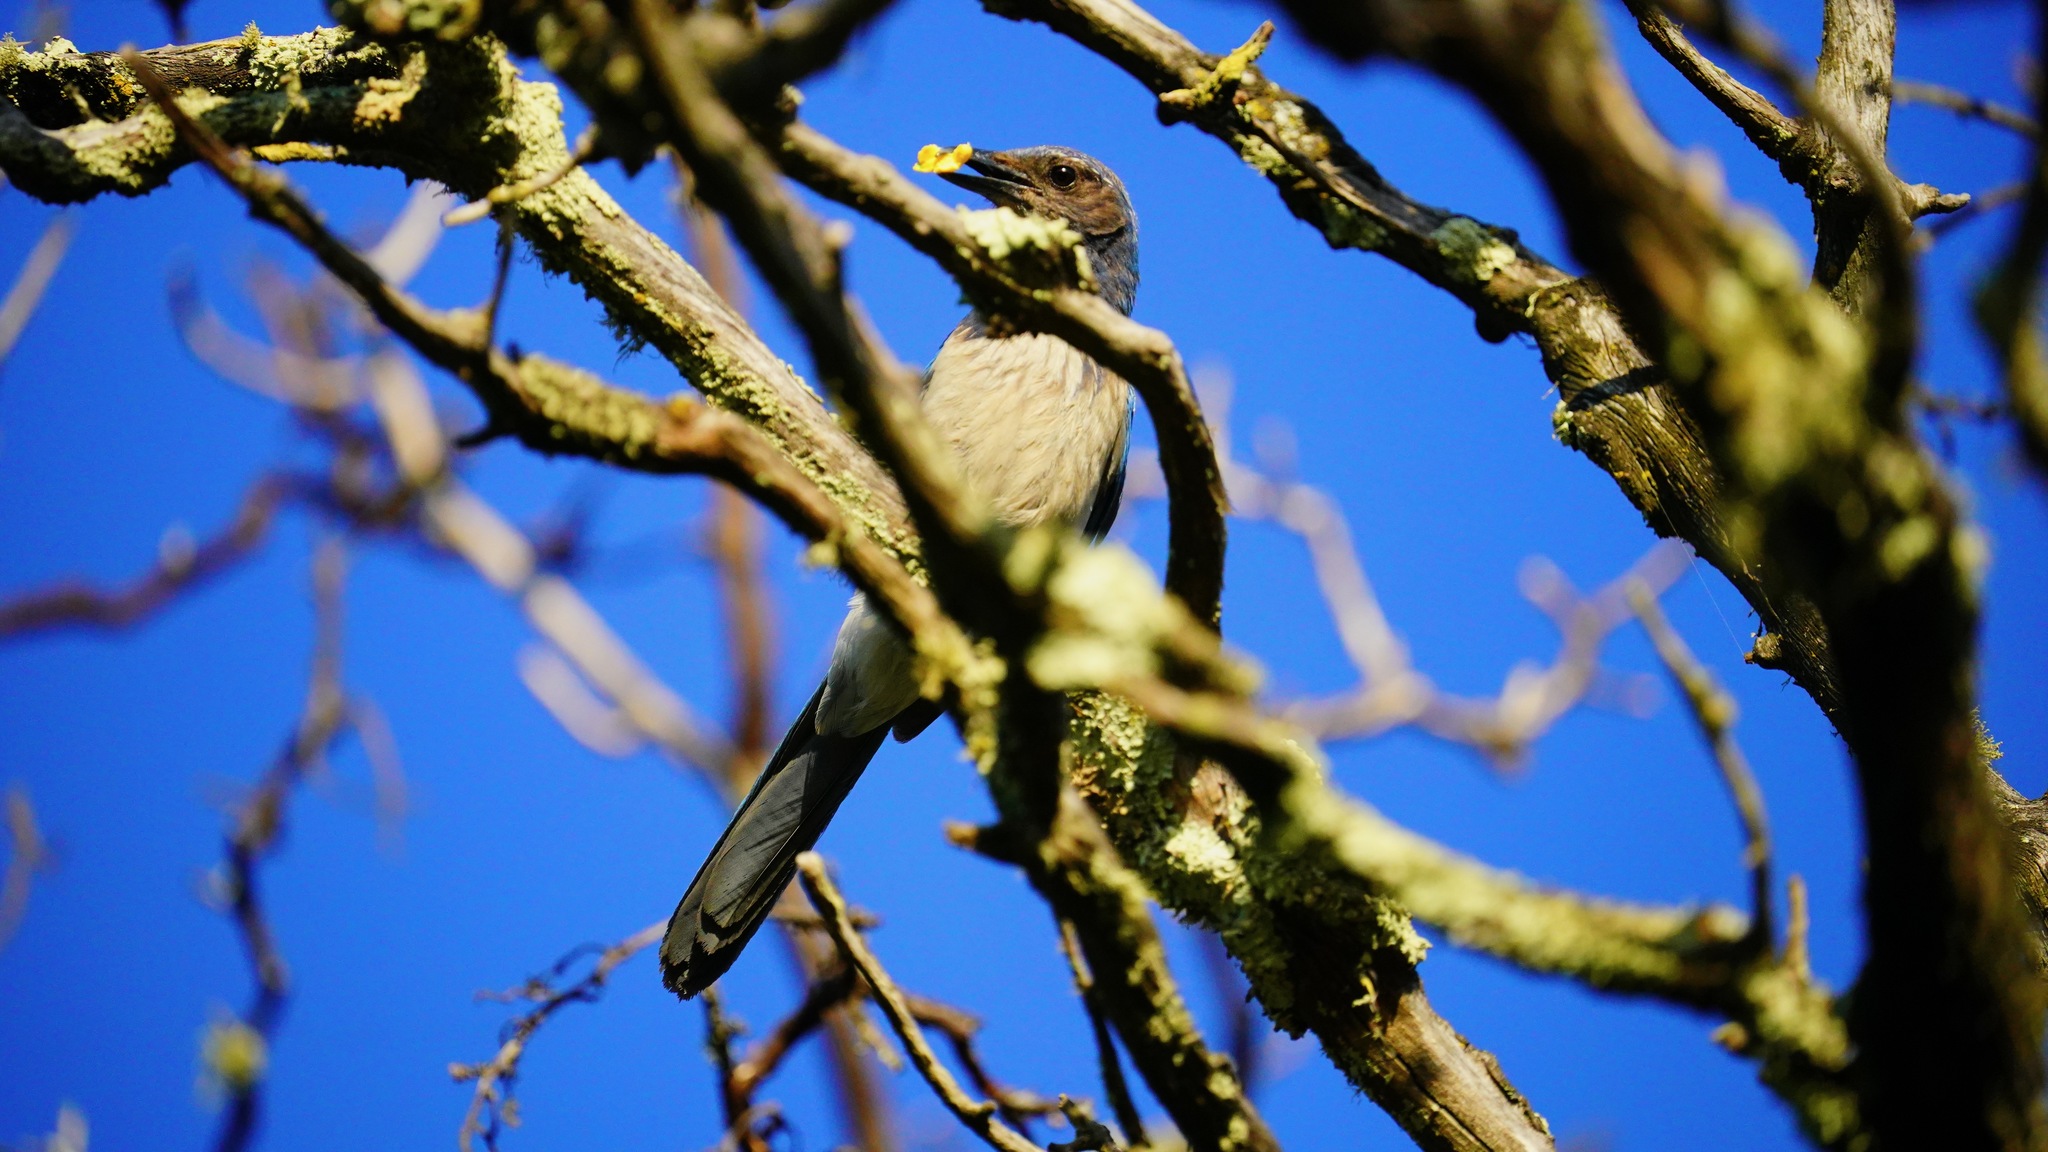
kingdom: Animalia
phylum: Chordata
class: Aves
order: Passeriformes
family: Corvidae
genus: Aphelocoma
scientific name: Aphelocoma californica
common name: California scrub-jay
